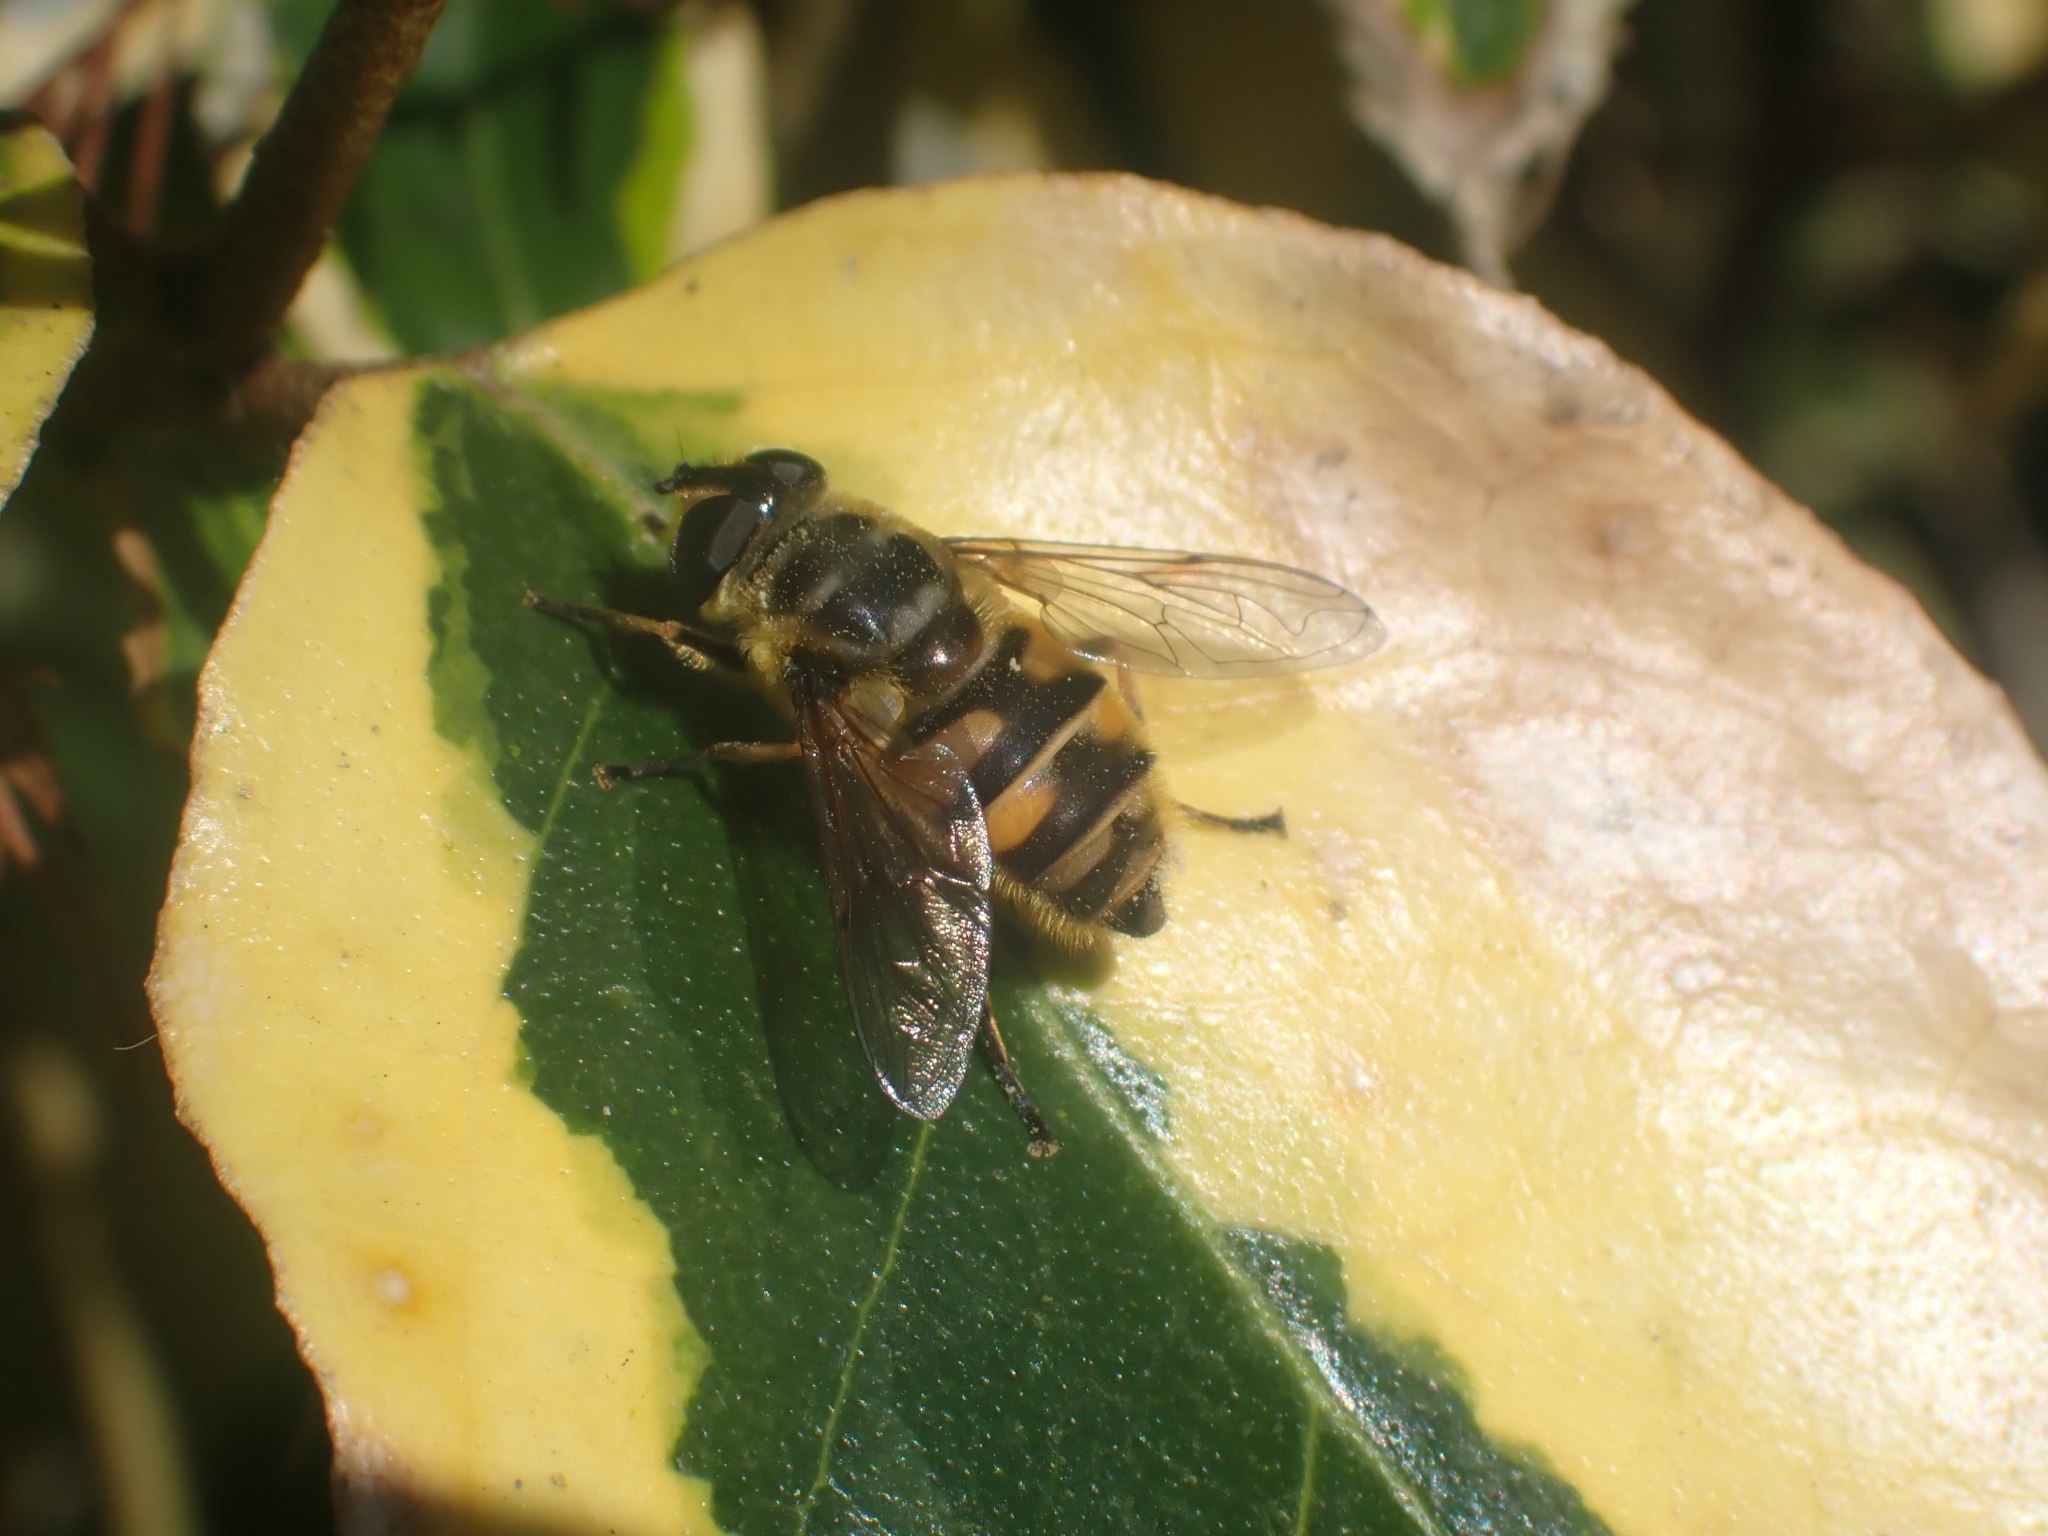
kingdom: Animalia
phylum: Arthropoda
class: Insecta
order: Diptera
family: Syrphidae
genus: Myathropa
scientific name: Myathropa florea
